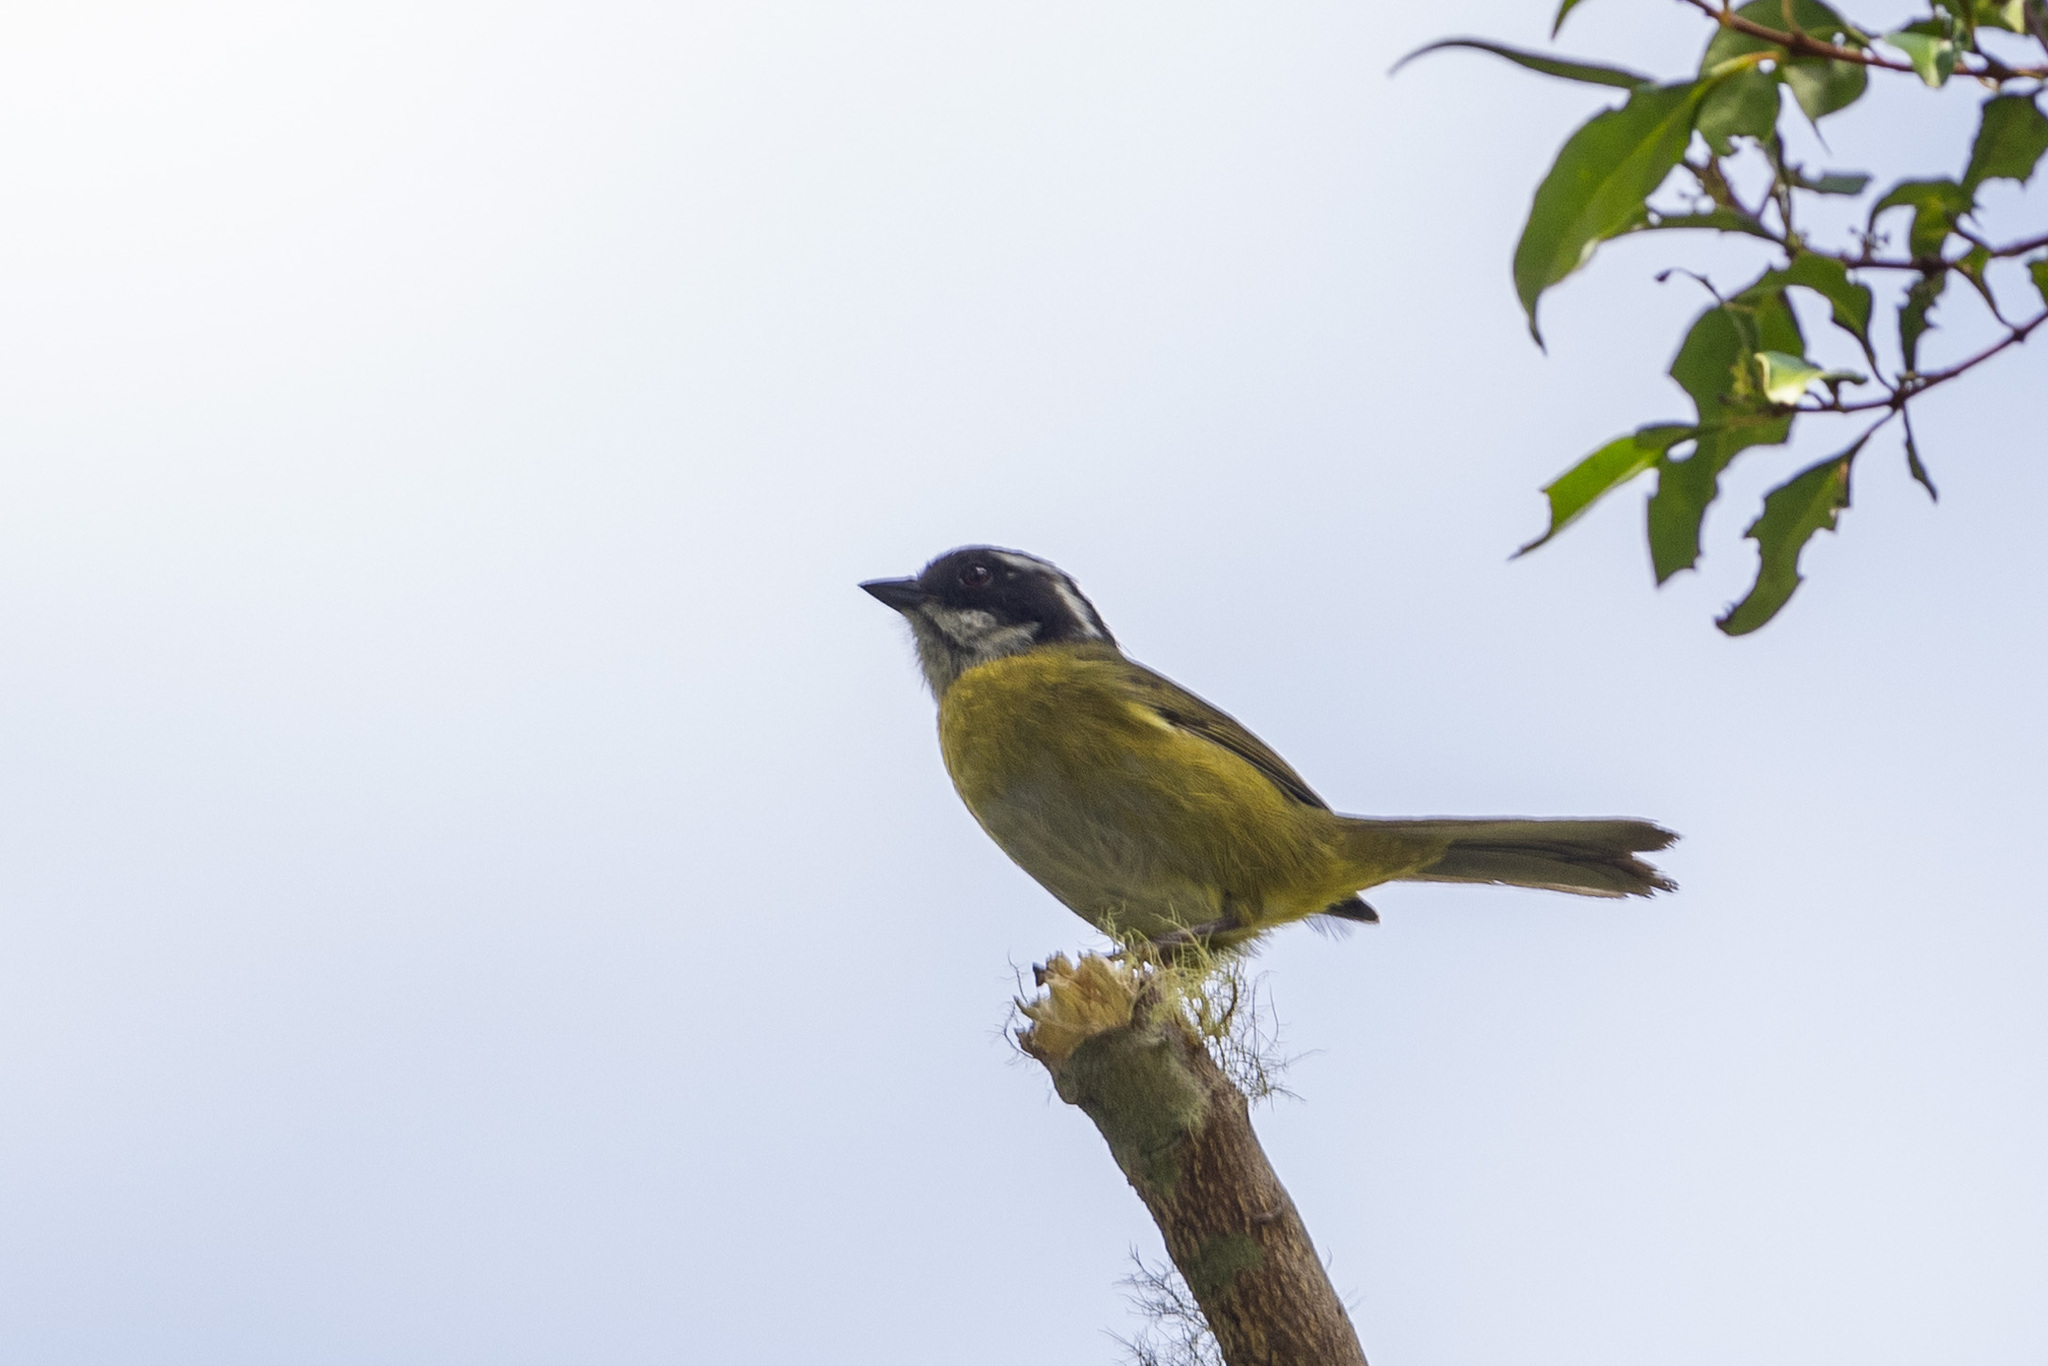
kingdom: Animalia
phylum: Chordata
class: Aves
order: Passeriformes
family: Passerellidae
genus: Chlorospingus
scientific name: Chlorospingus pileatus
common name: Sooty-capped bush-tanager
